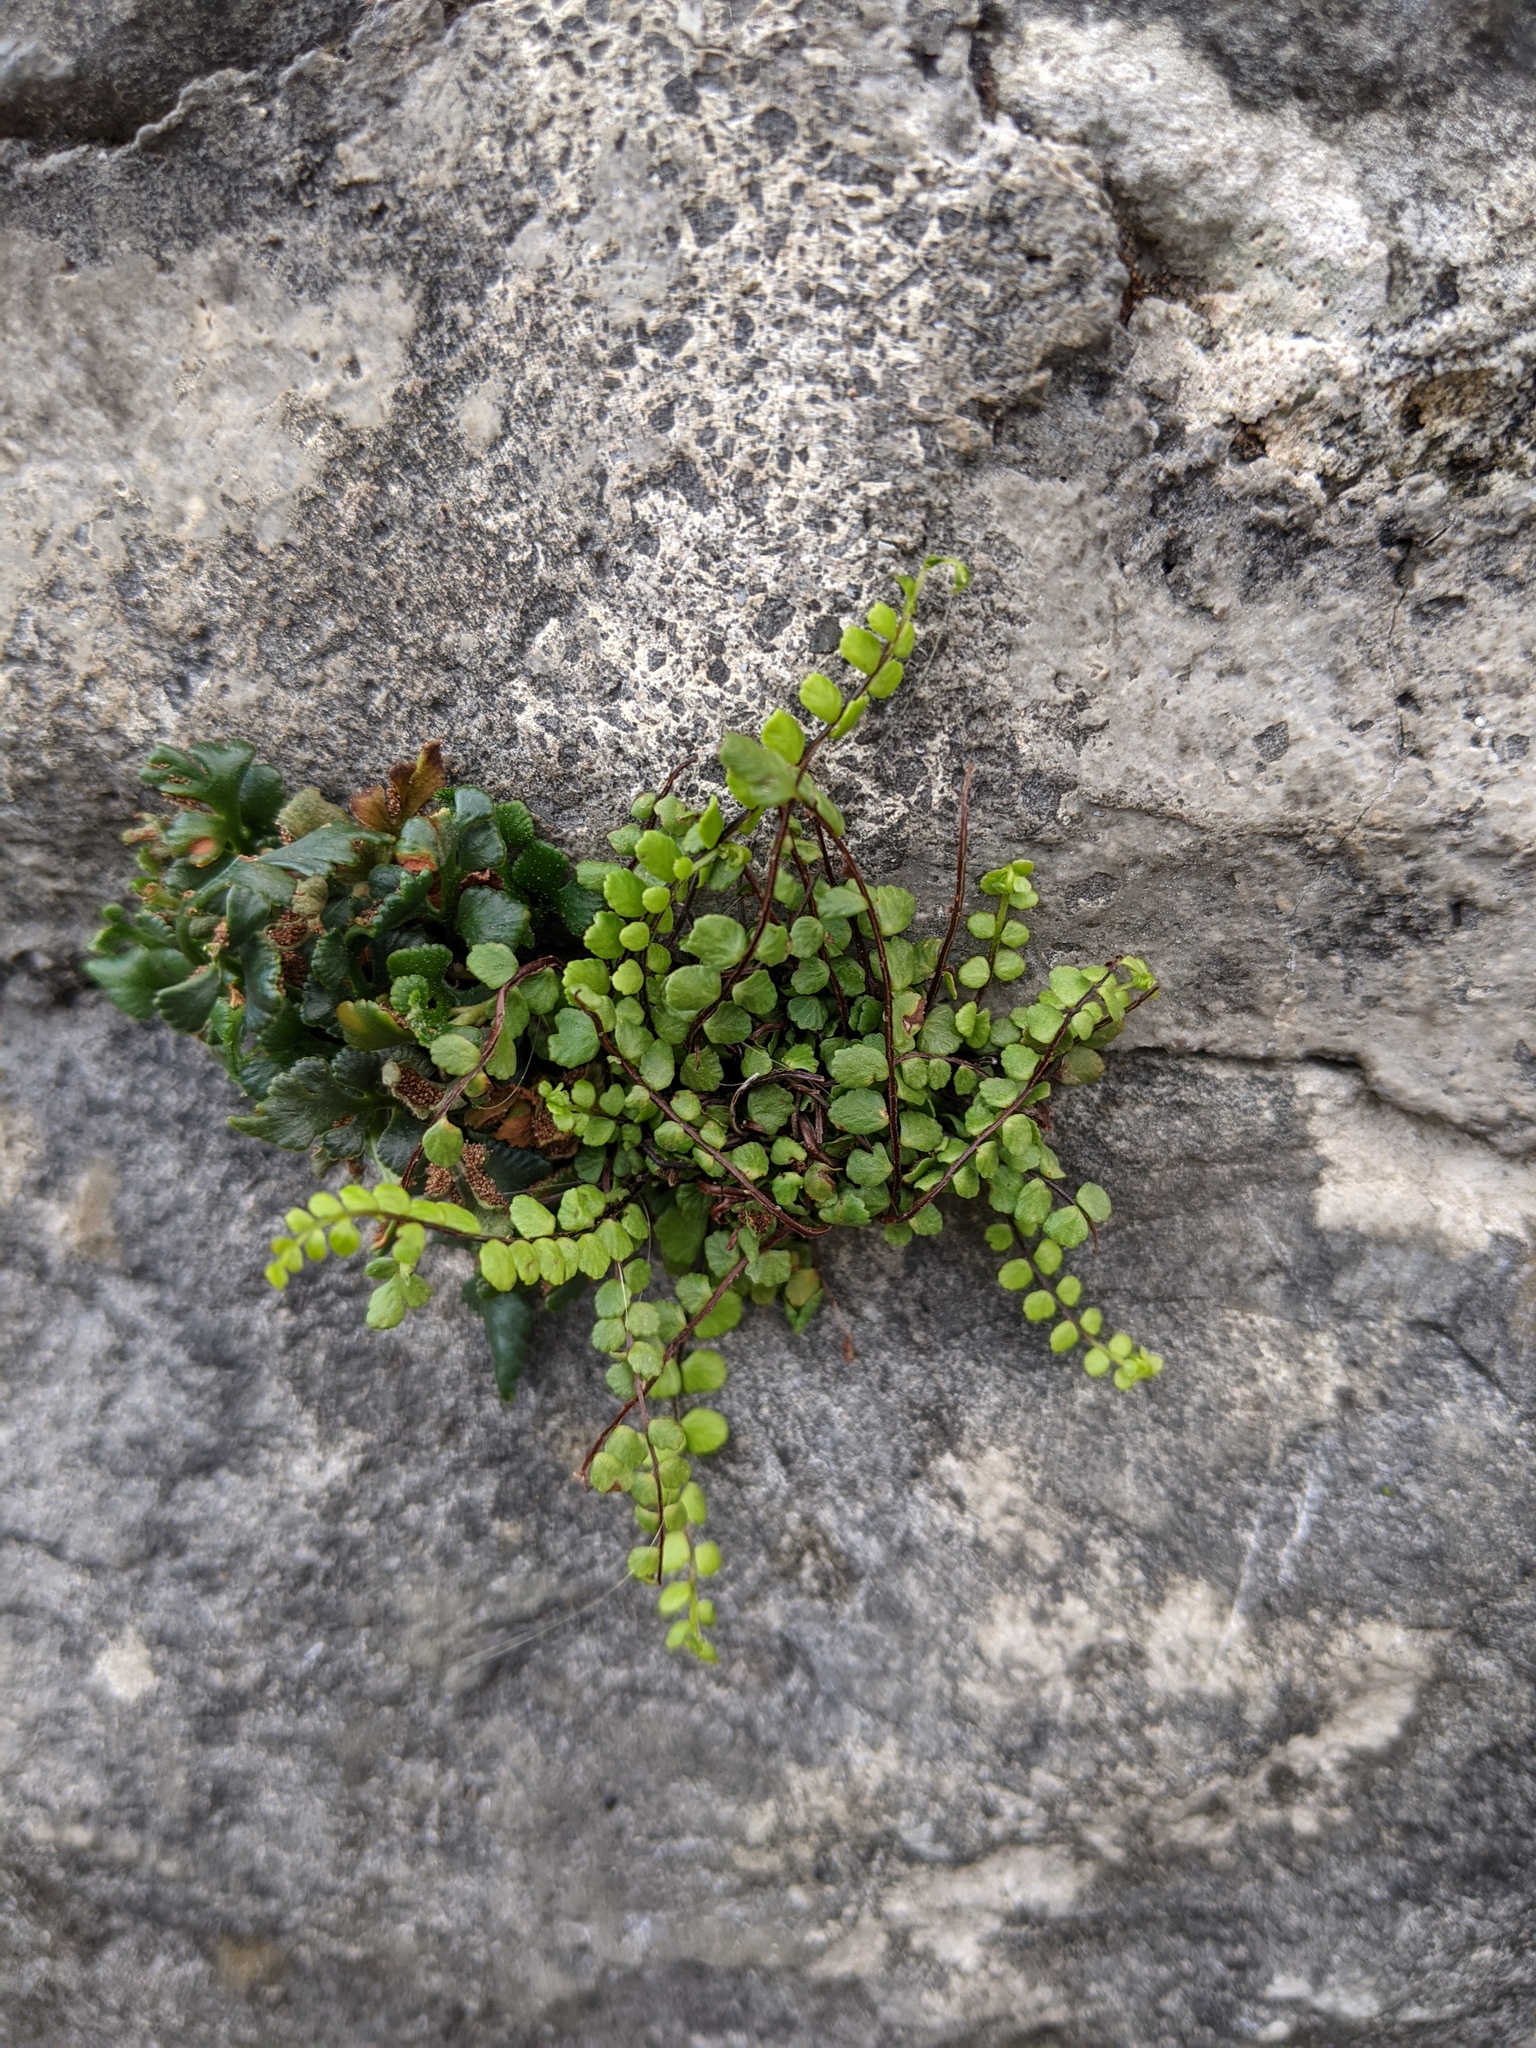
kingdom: Plantae
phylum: Tracheophyta
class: Polypodiopsida
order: Polypodiales
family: Aspleniaceae
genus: Asplenium
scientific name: Asplenium trichomanes
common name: Maidenhair spleenwort
